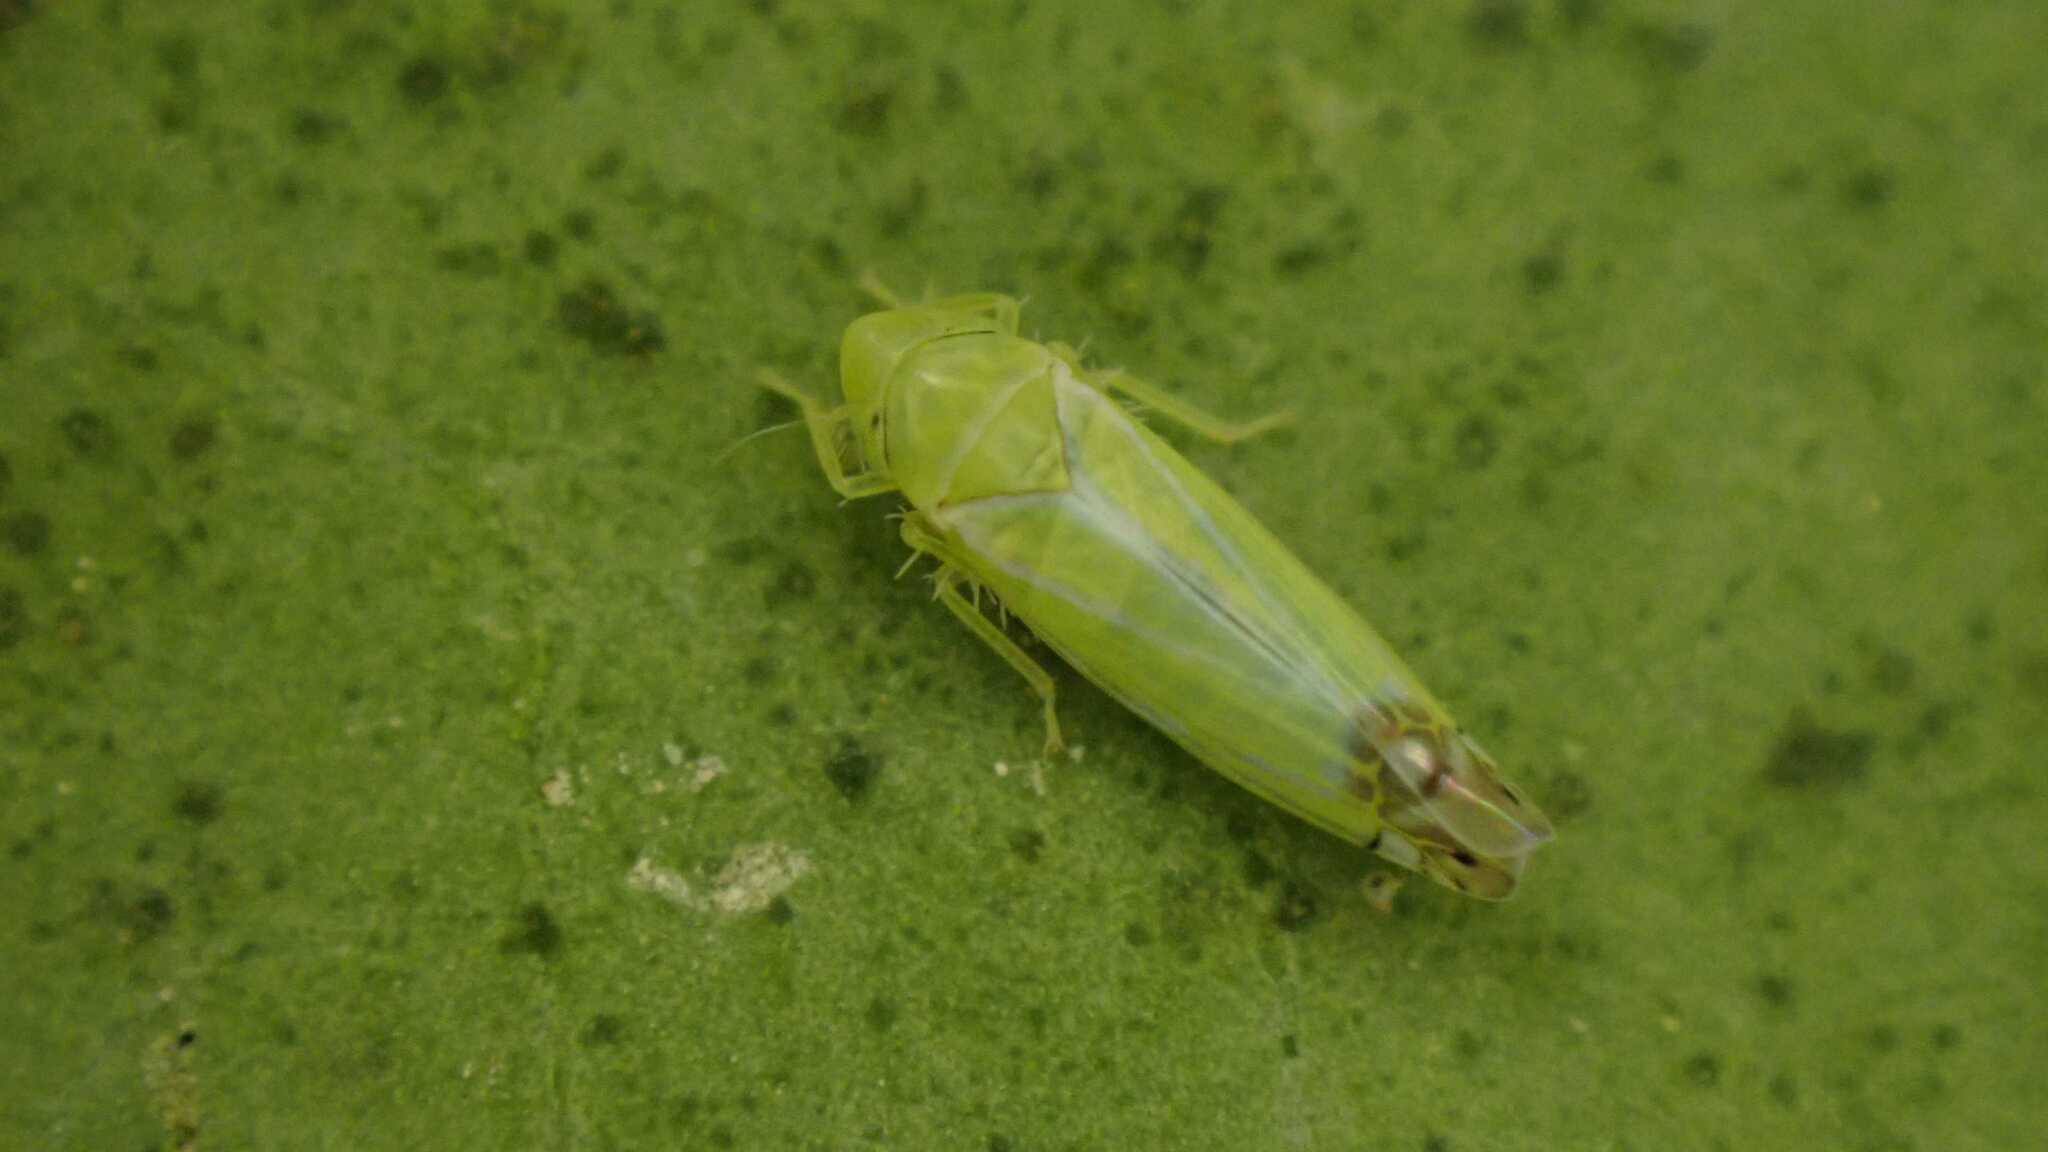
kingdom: Animalia
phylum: Arthropoda
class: Insecta
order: Hemiptera
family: Cicadellidae
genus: Zyginella
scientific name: Zyginella pulchra
